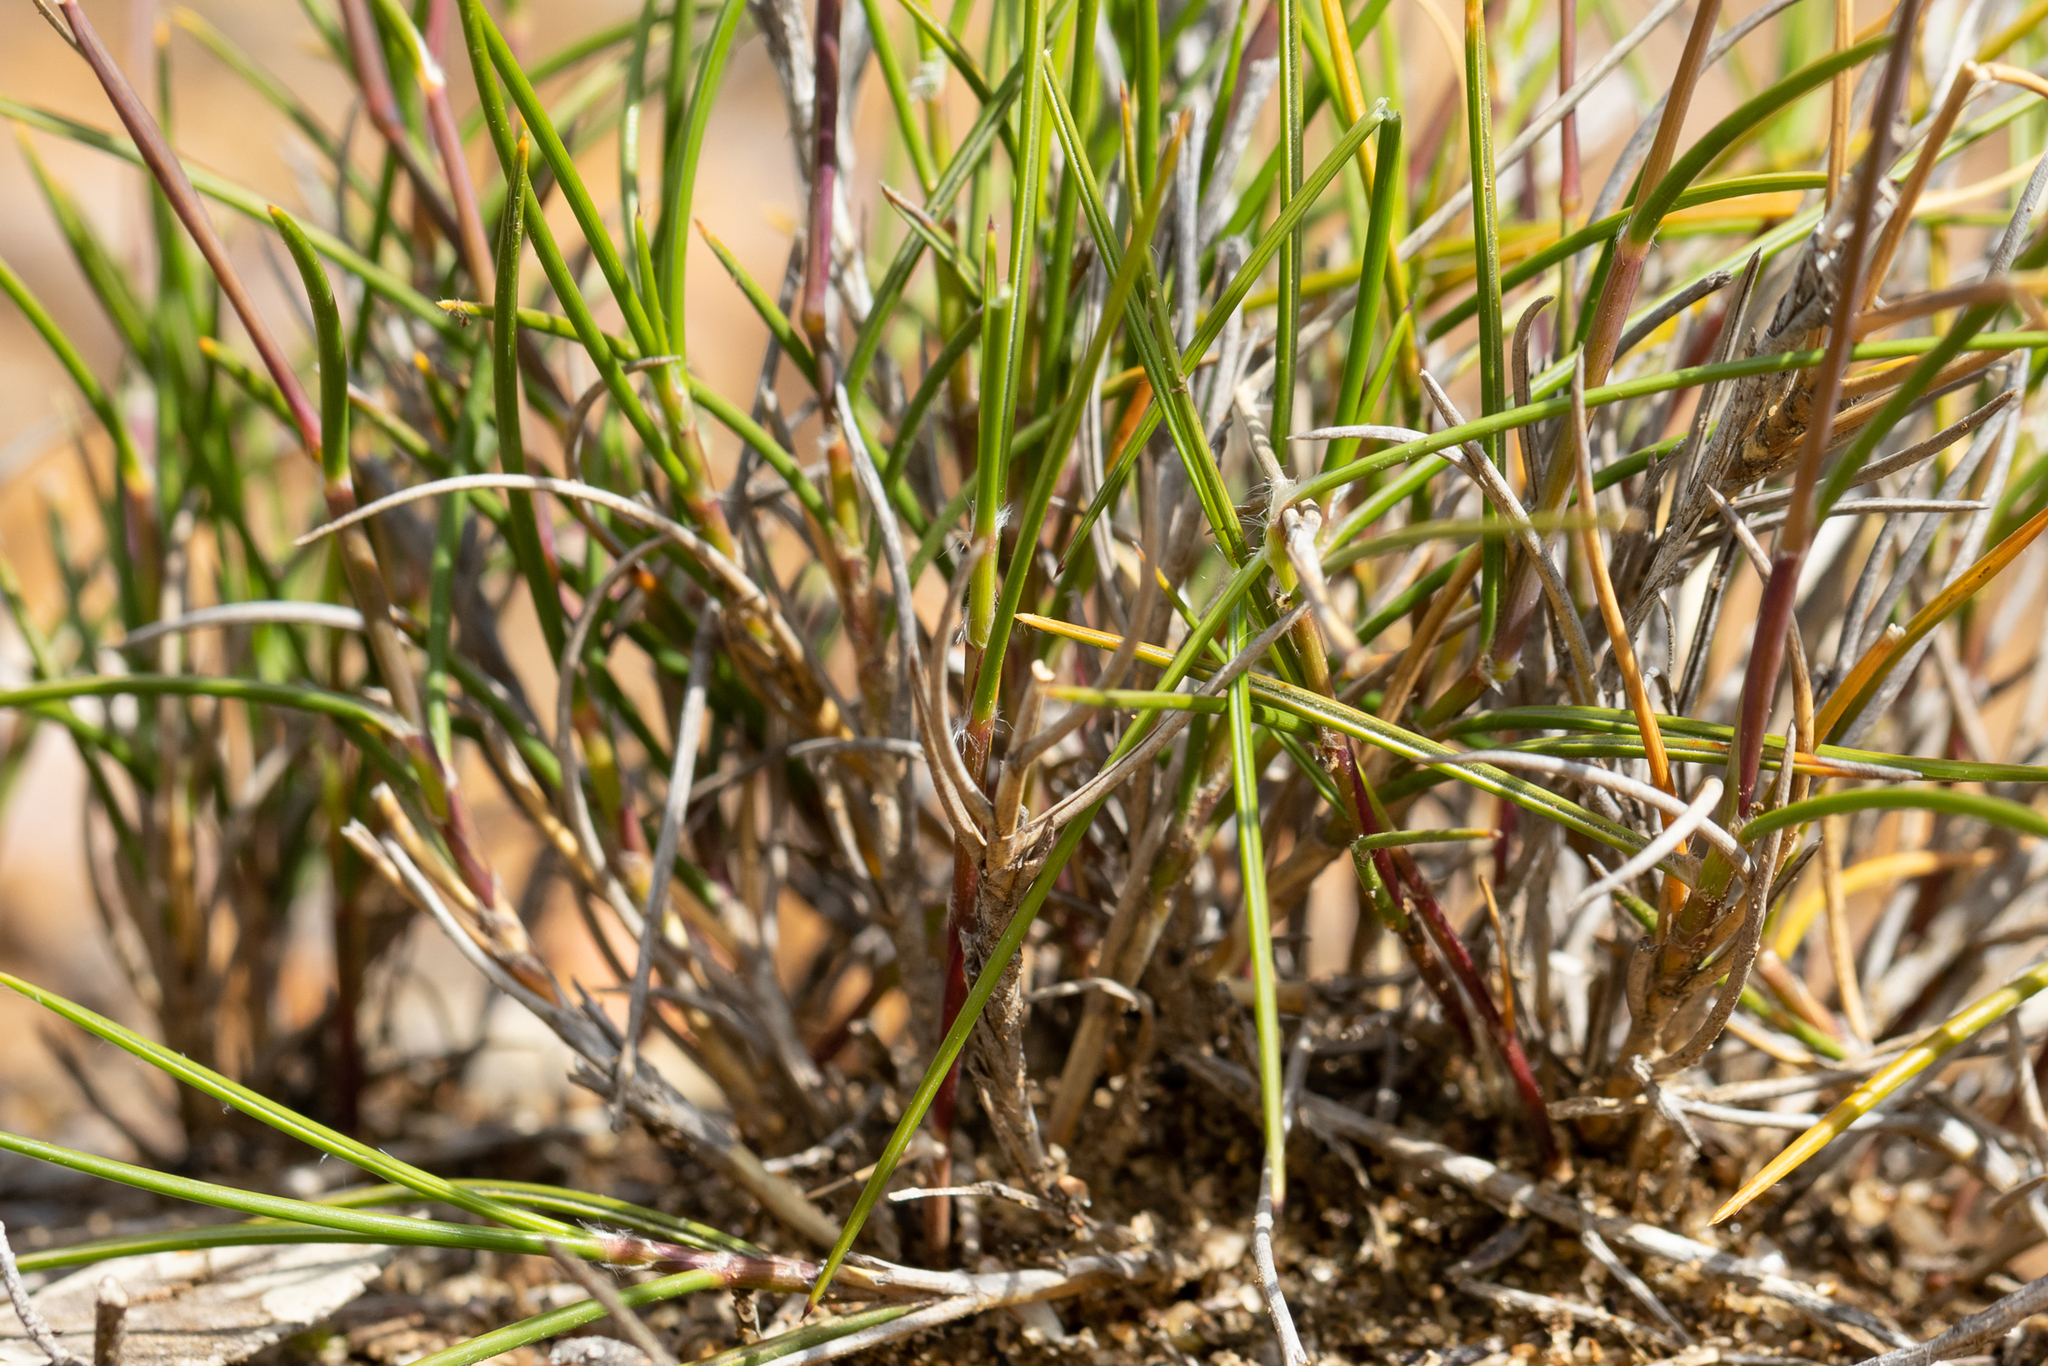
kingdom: Plantae
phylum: Tracheophyta
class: Liliopsida
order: Poales
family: Poaceae
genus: Amphipogon
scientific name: Amphipogon turbinatus
